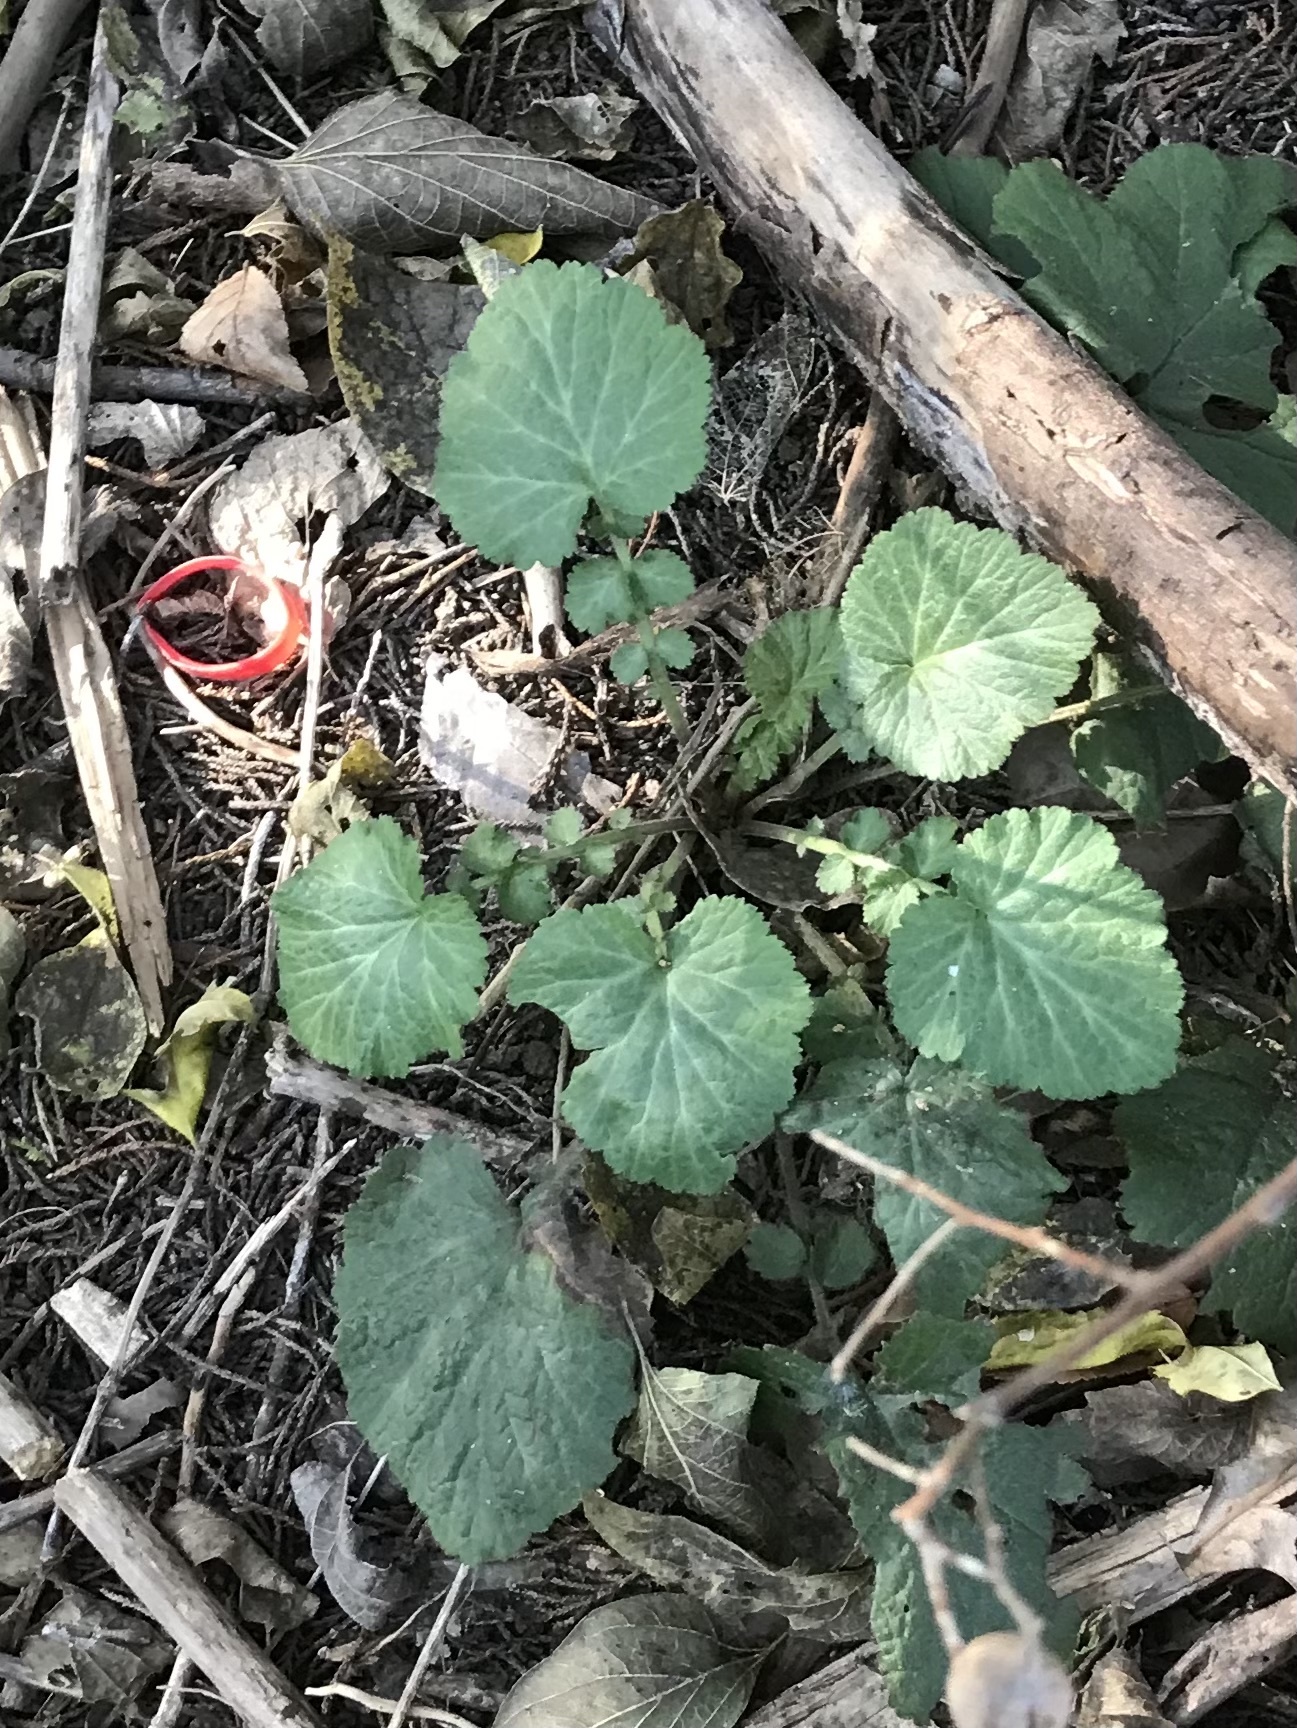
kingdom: Plantae
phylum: Tracheophyta
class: Magnoliopsida
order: Rosales
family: Rosaceae
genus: Geum
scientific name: Geum canadense
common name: White avens
